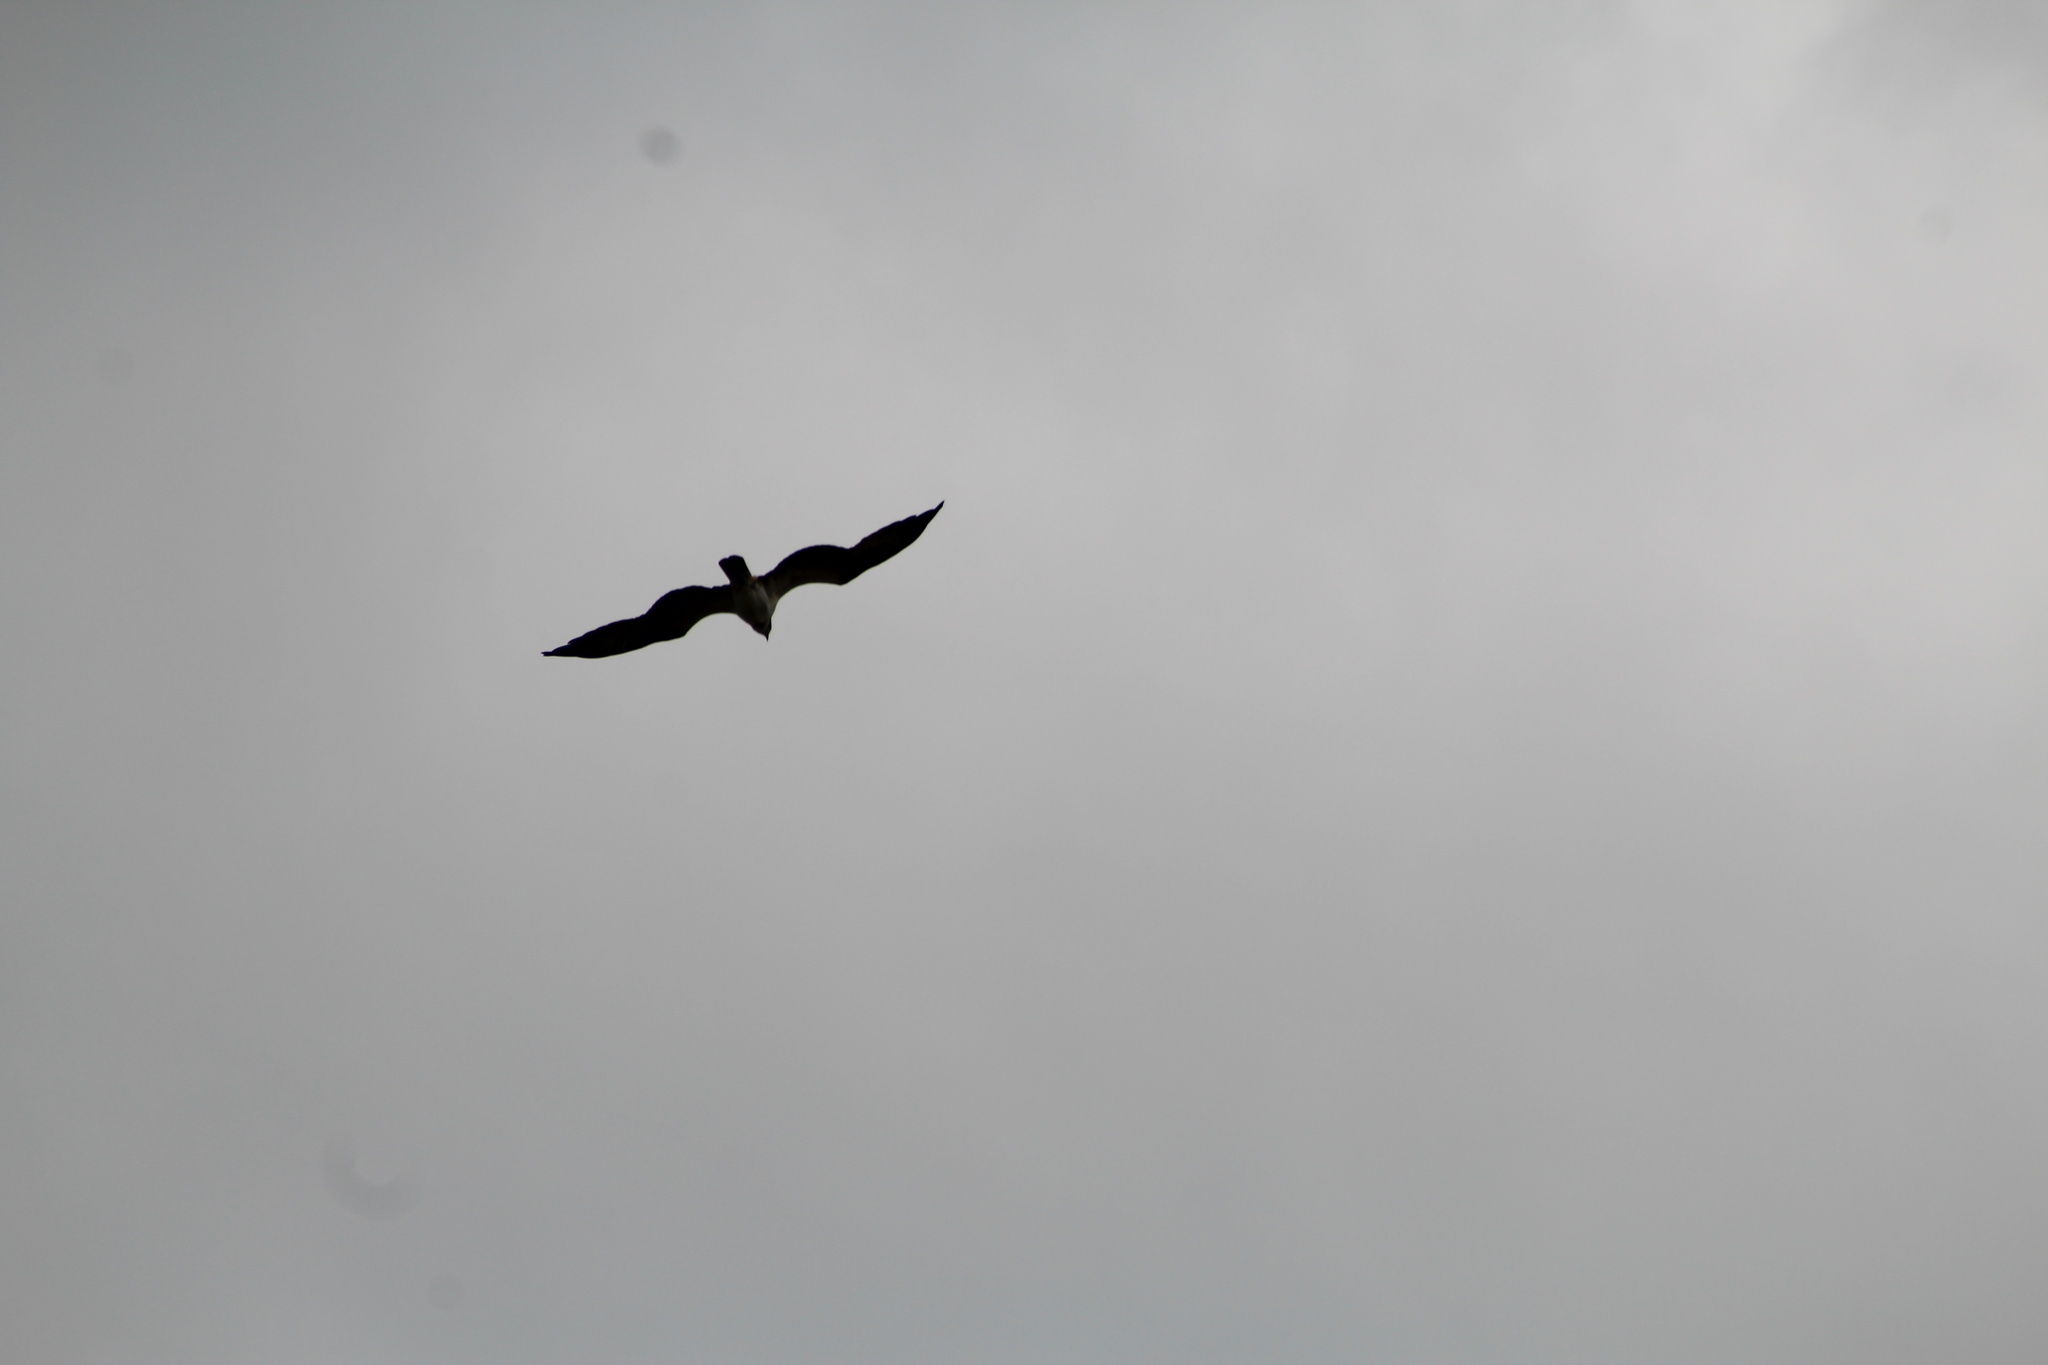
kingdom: Animalia
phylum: Chordata
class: Aves
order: Accipitriformes
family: Pandionidae
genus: Pandion
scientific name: Pandion haliaetus
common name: Osprey
